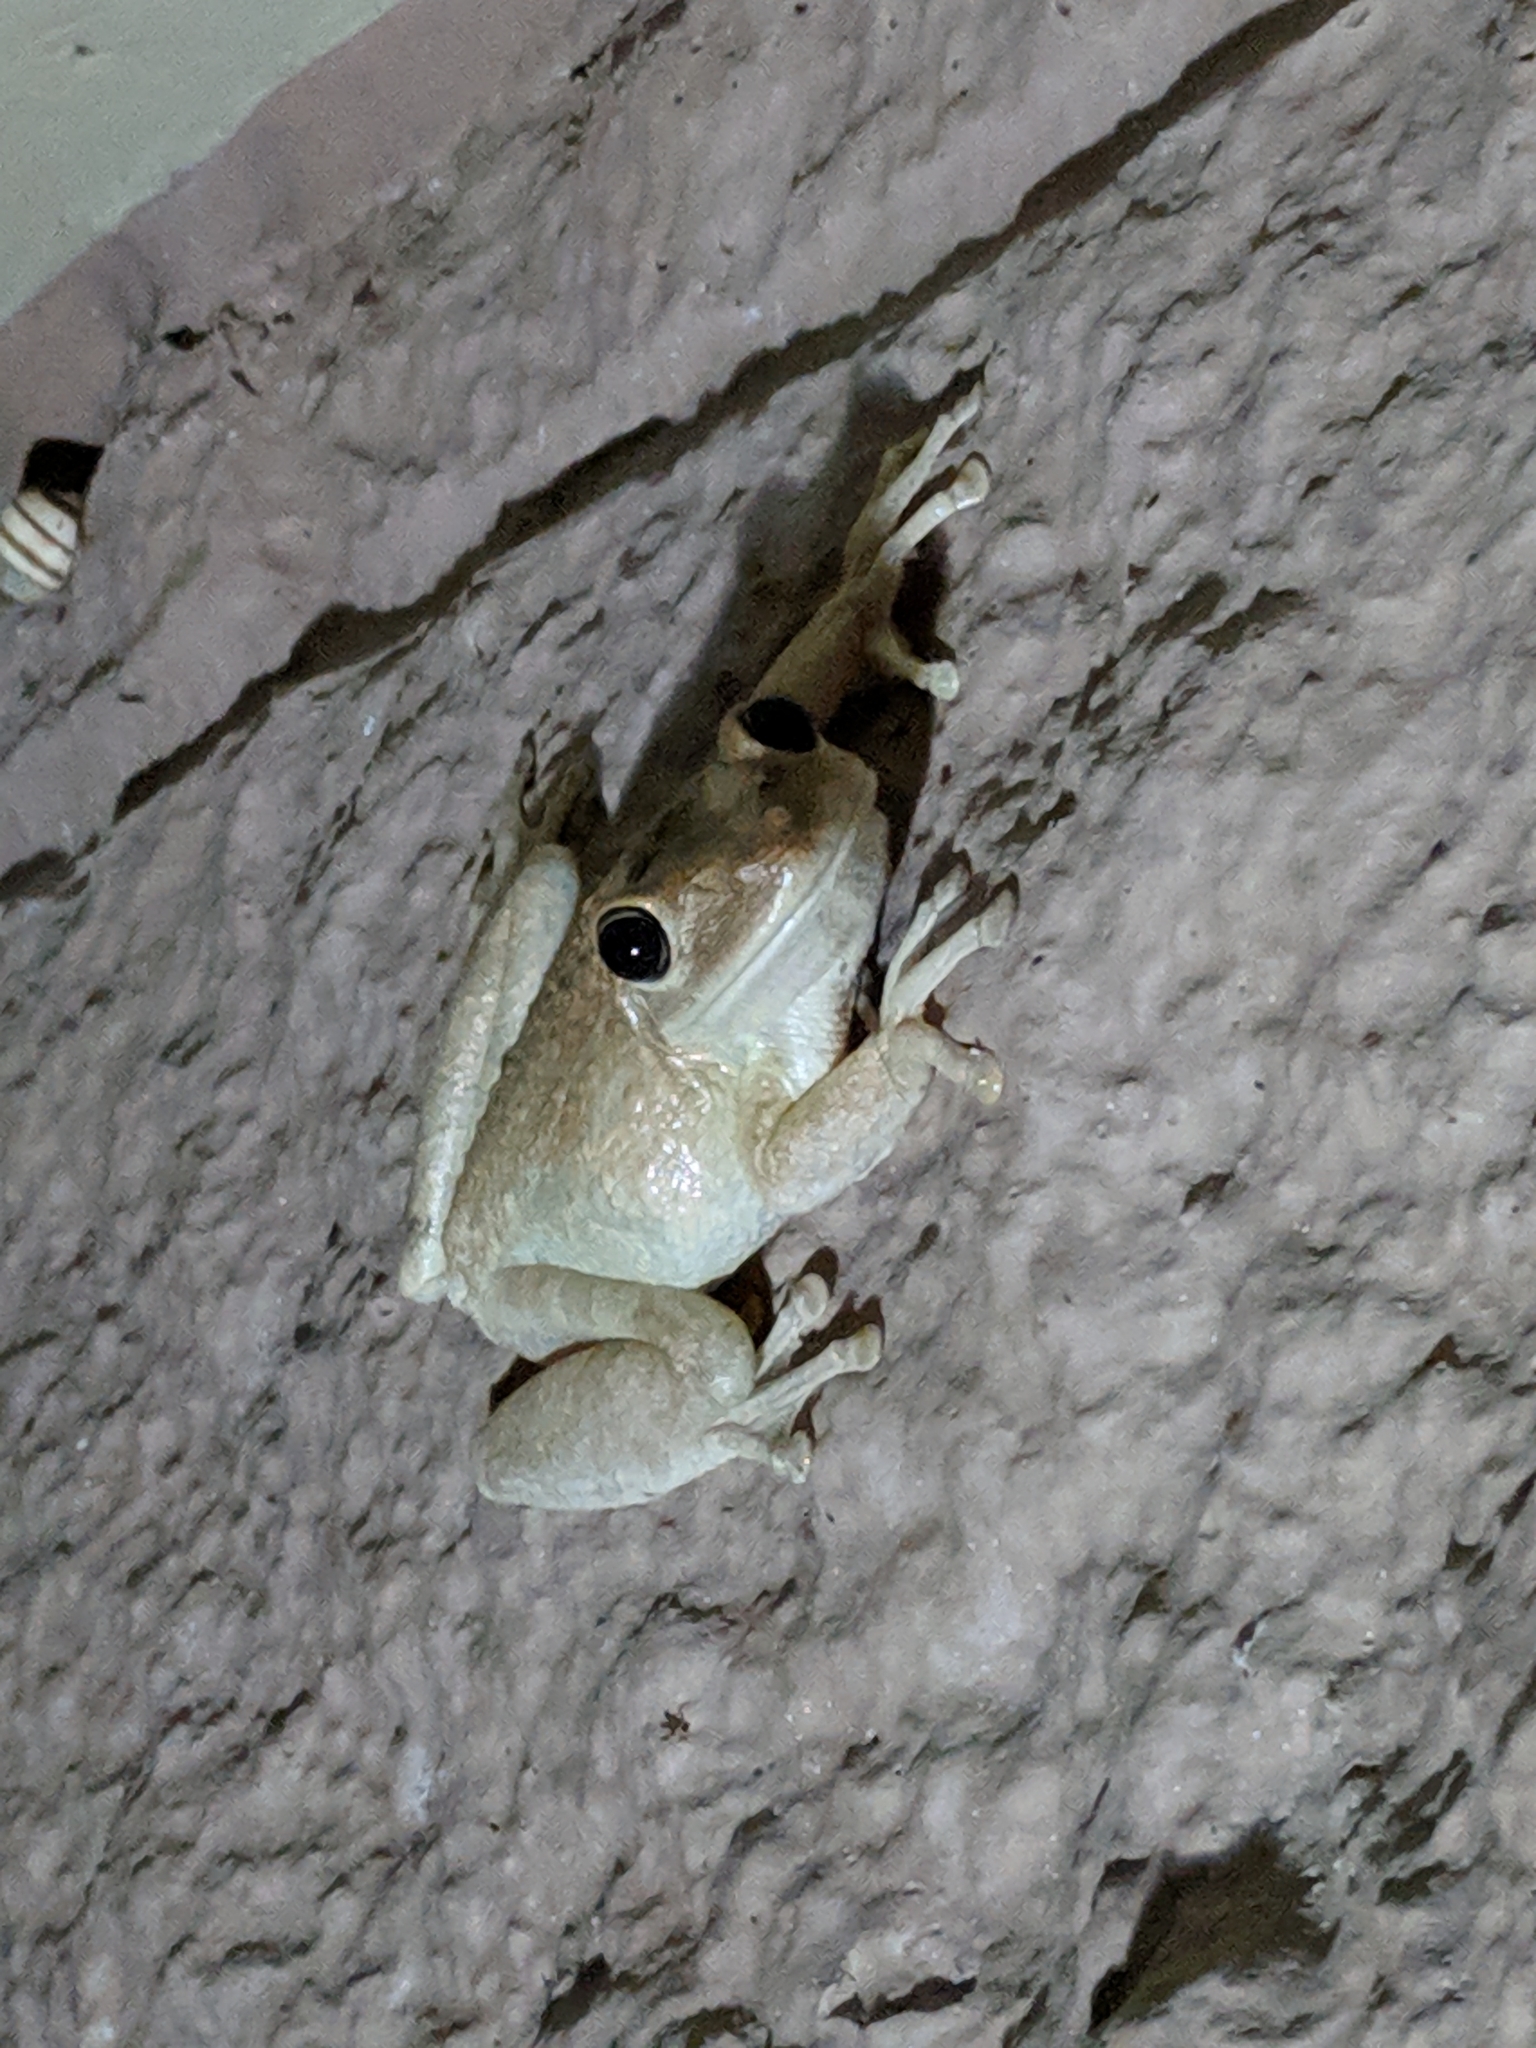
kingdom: Animalia
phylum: Chordata
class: Amphibia
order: Anura
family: Hylidae
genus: Osteopilus
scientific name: Osteopilus septentrionalis
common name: Cuban treefrog
